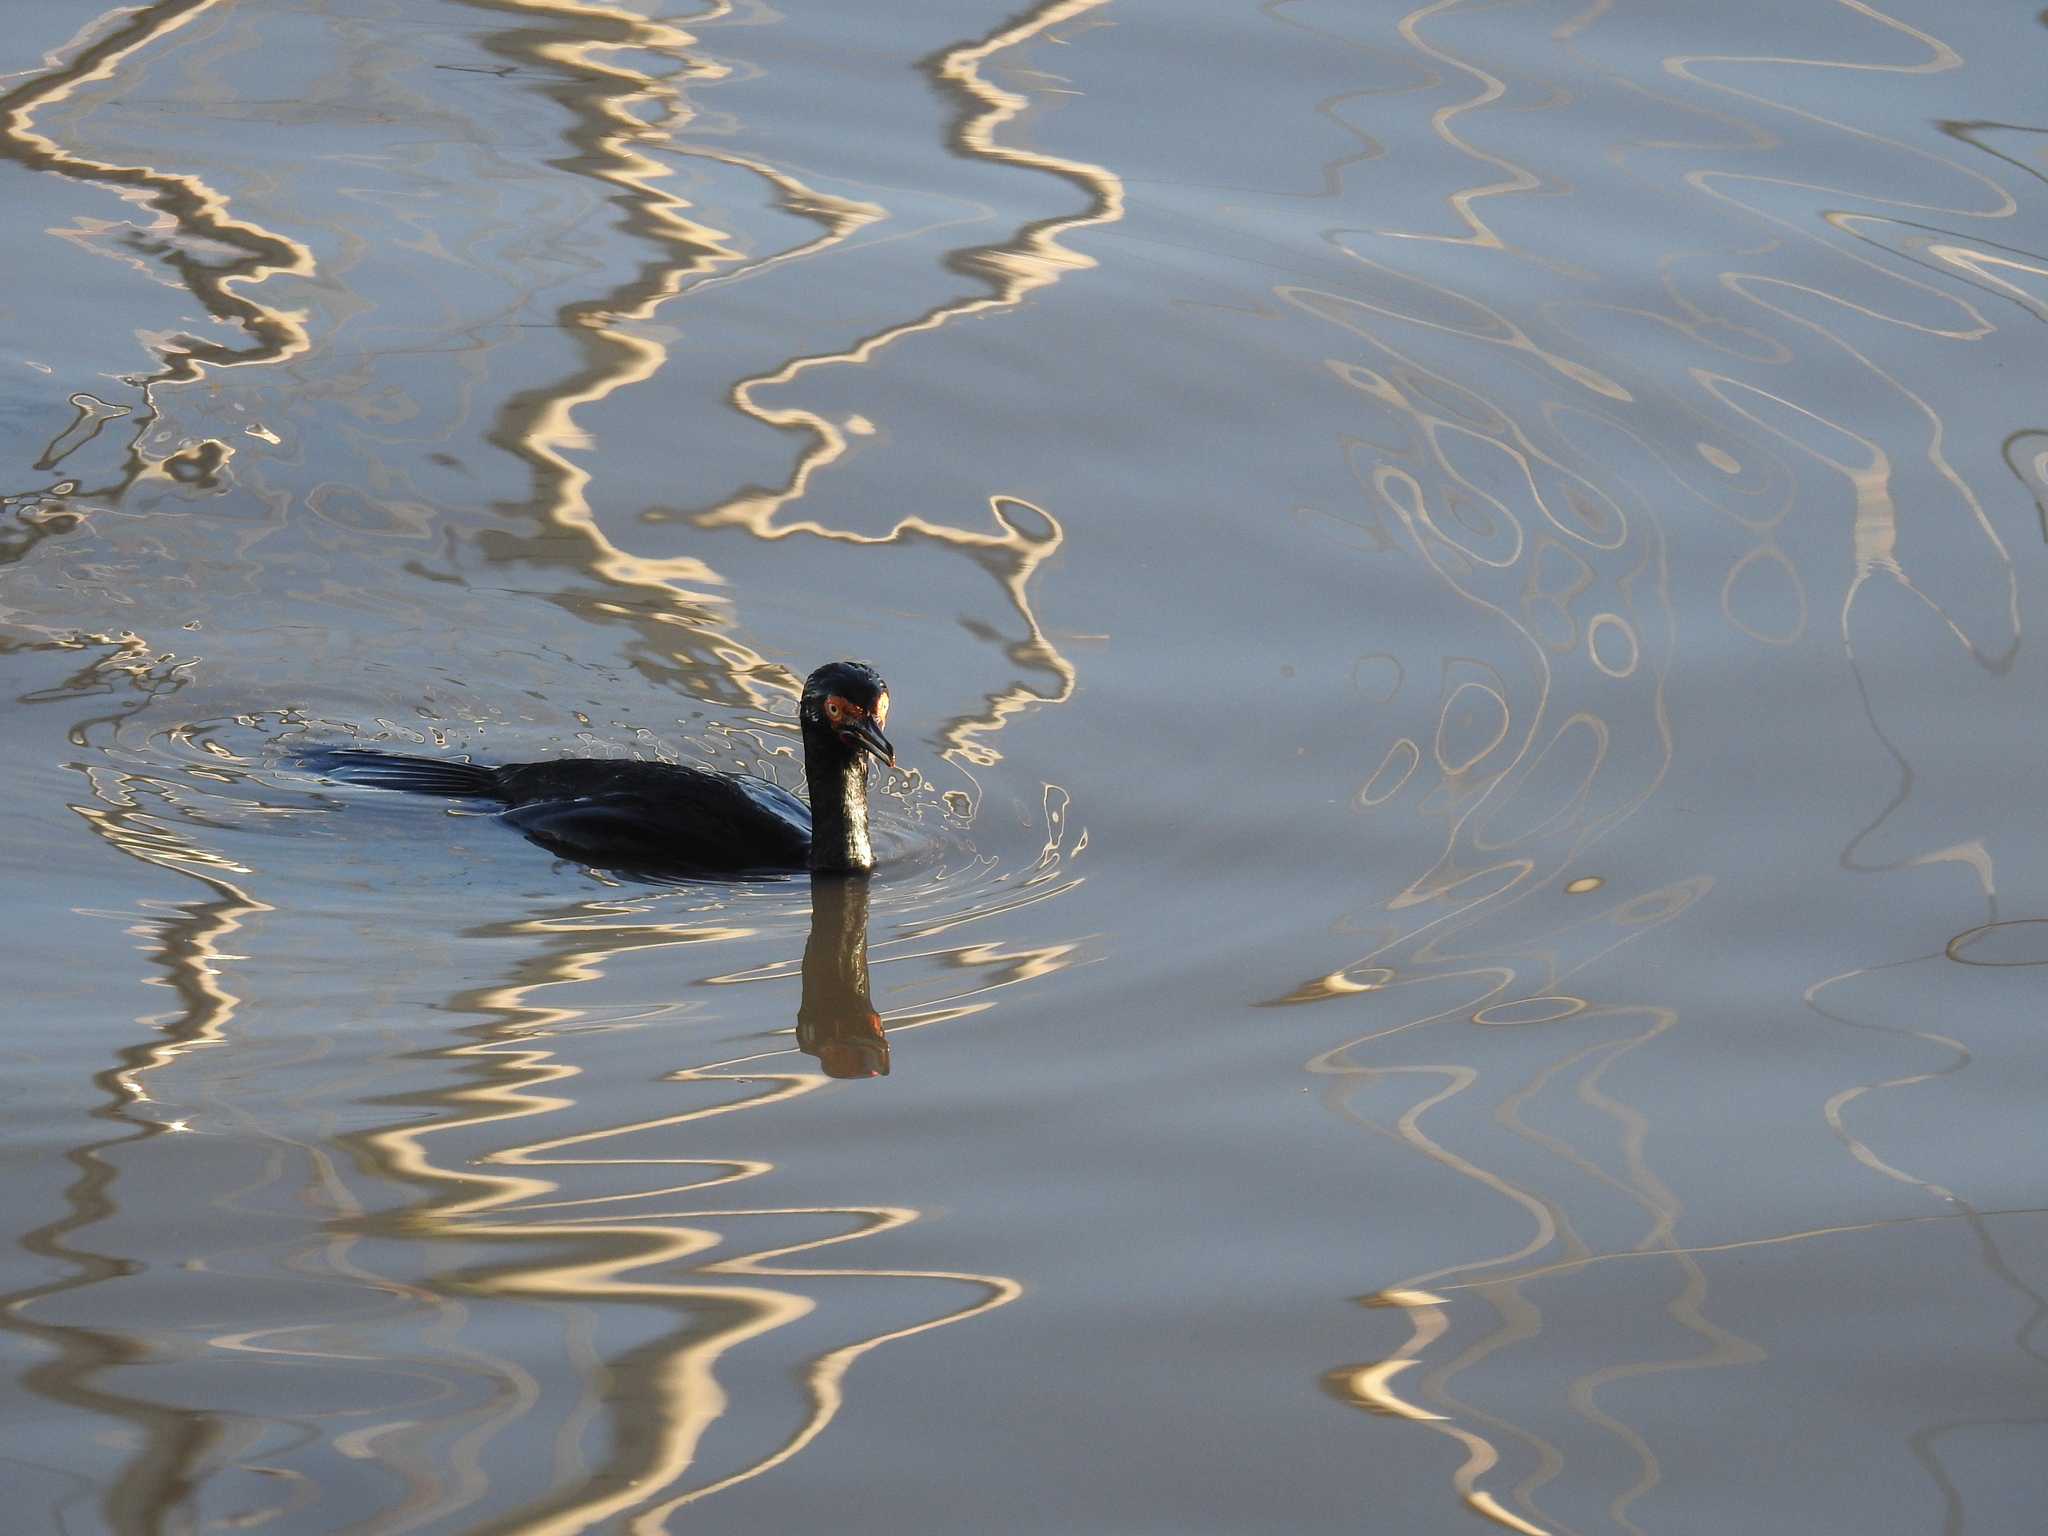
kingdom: Animalia
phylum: Chordata
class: Aves
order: Suliformes
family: Phalacrocoracidae
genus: Phalacrocorax
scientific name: Phalacrocorax magellanicus
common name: Rock shag
